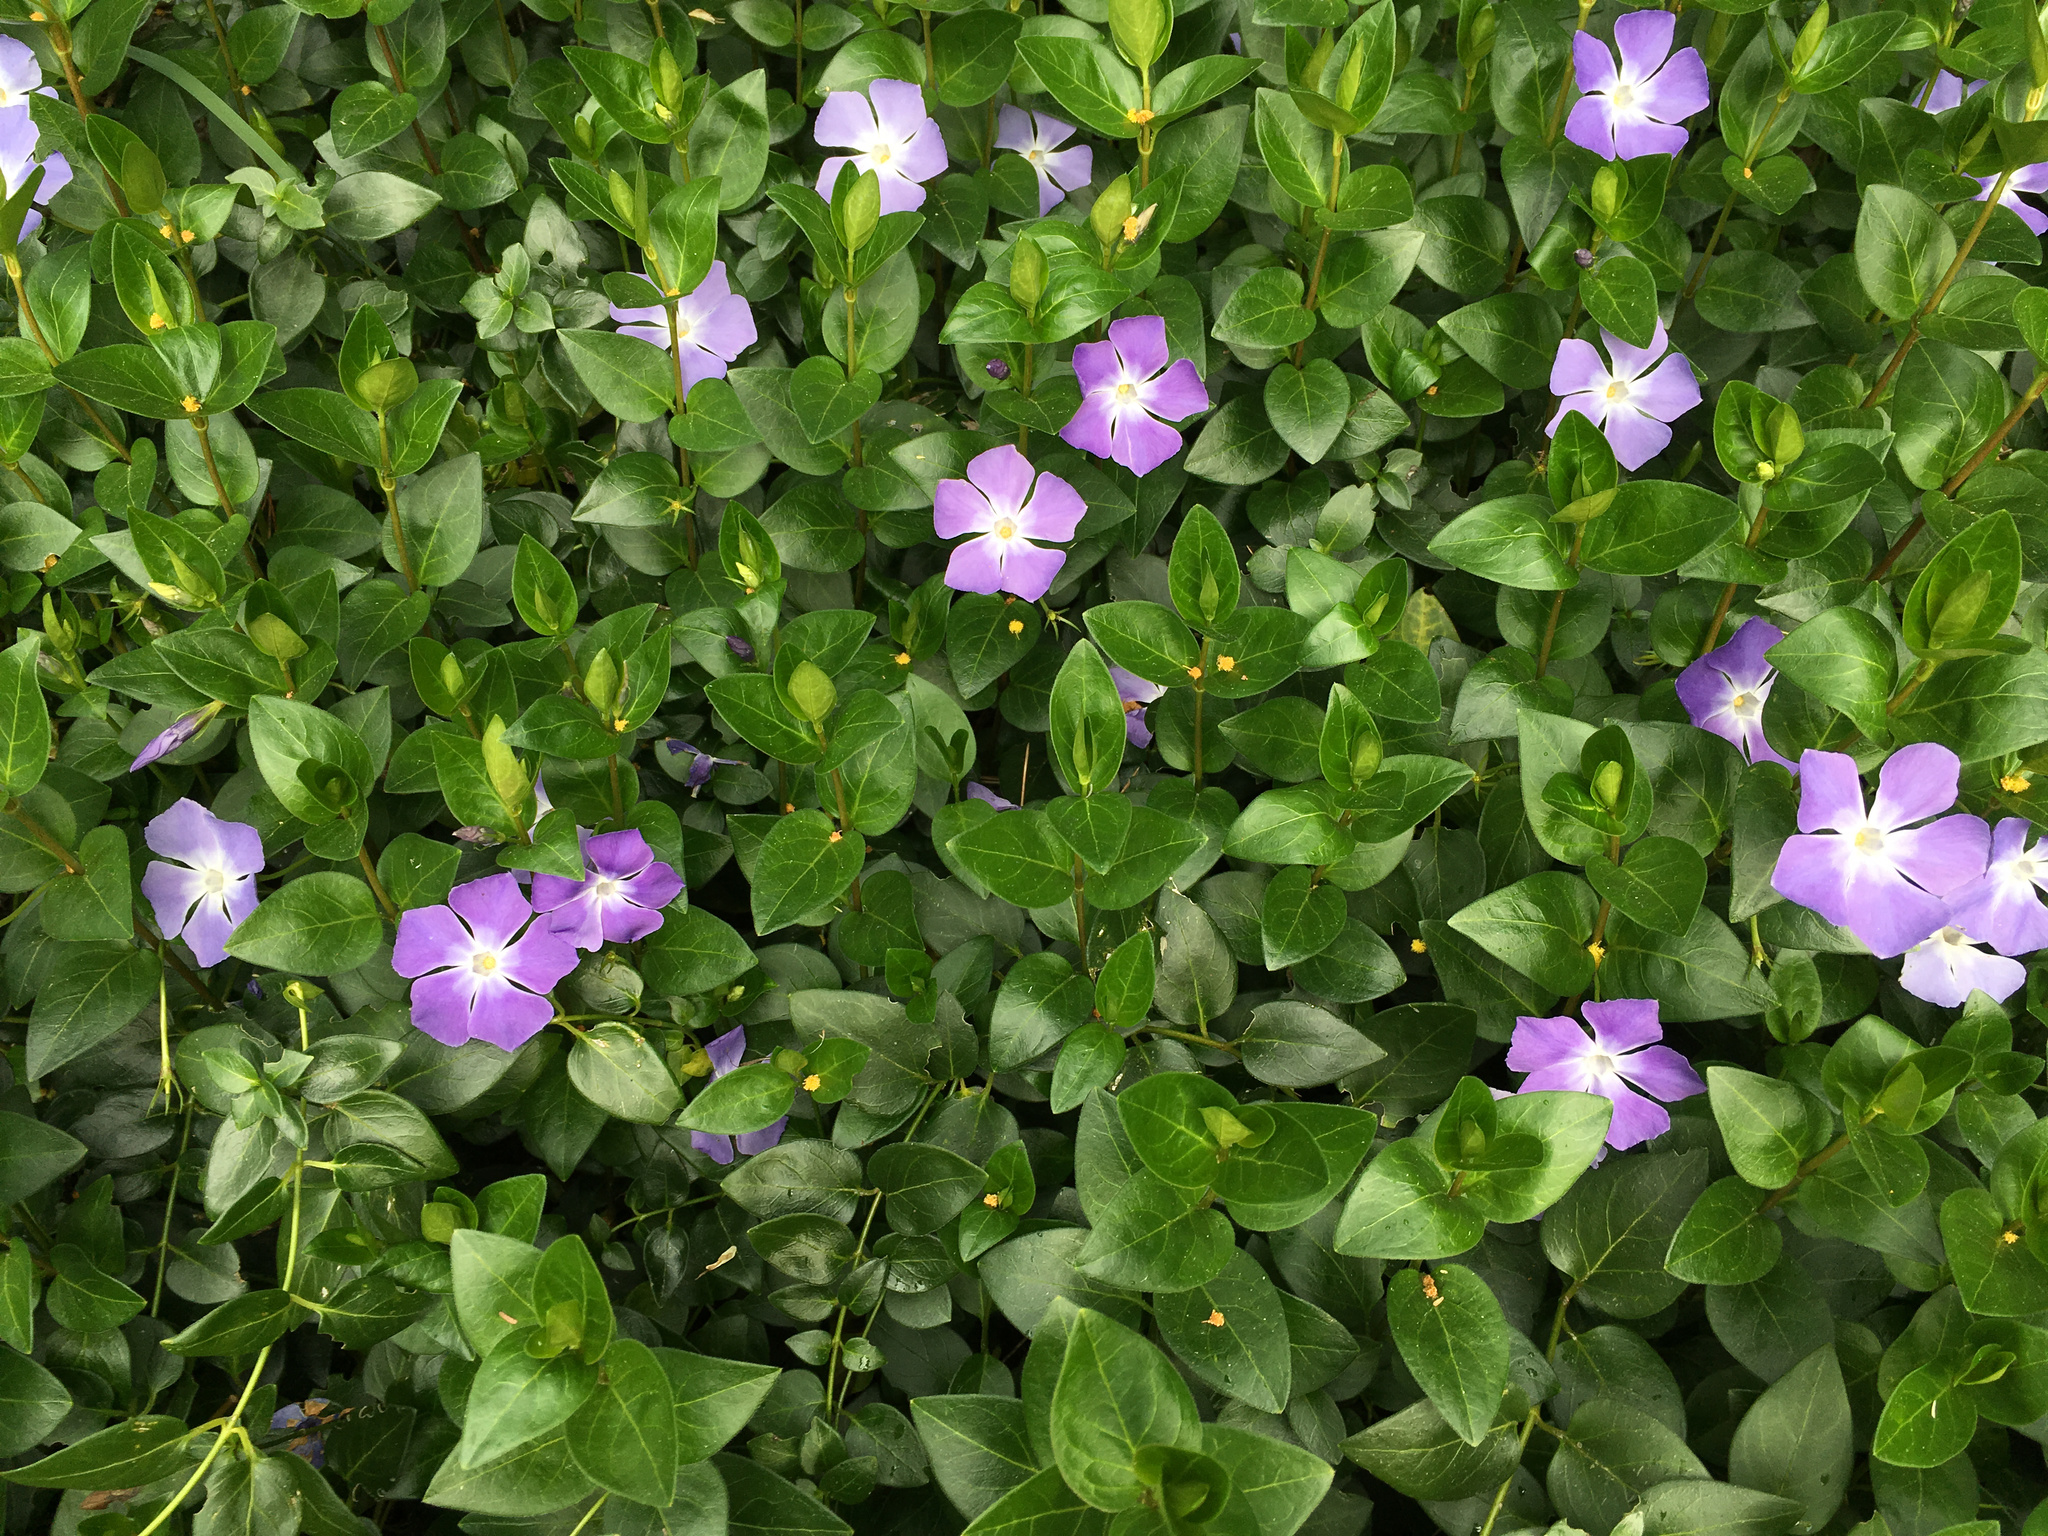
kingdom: Plantae
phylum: Tracheophyta
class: Magnoliopsida
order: Gentianales
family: Apocynaceae
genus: Vinca
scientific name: Vinca major
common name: Greater periwinkle
